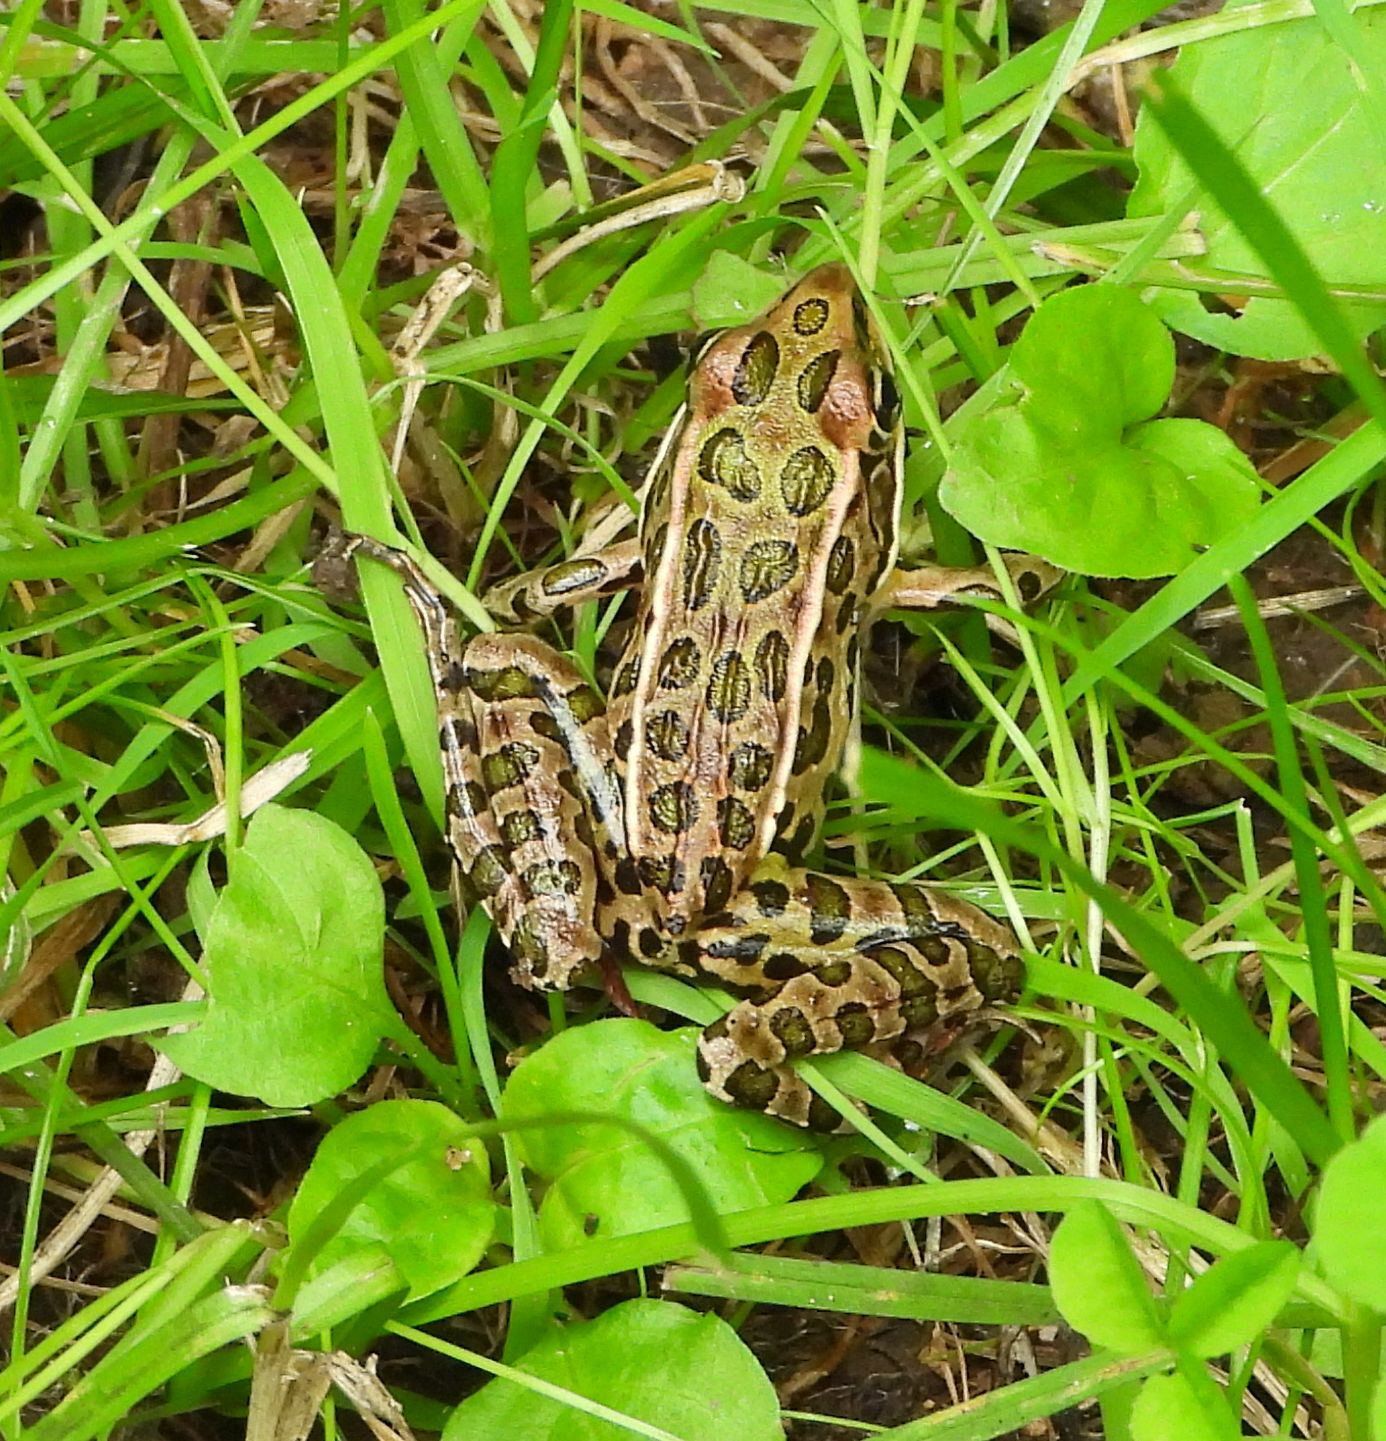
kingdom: Animalia
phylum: Chordata
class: Amphibia
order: Anura
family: Ranidae
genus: Lithobates
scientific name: Lithobates pipiens
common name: Northern leopard frog
